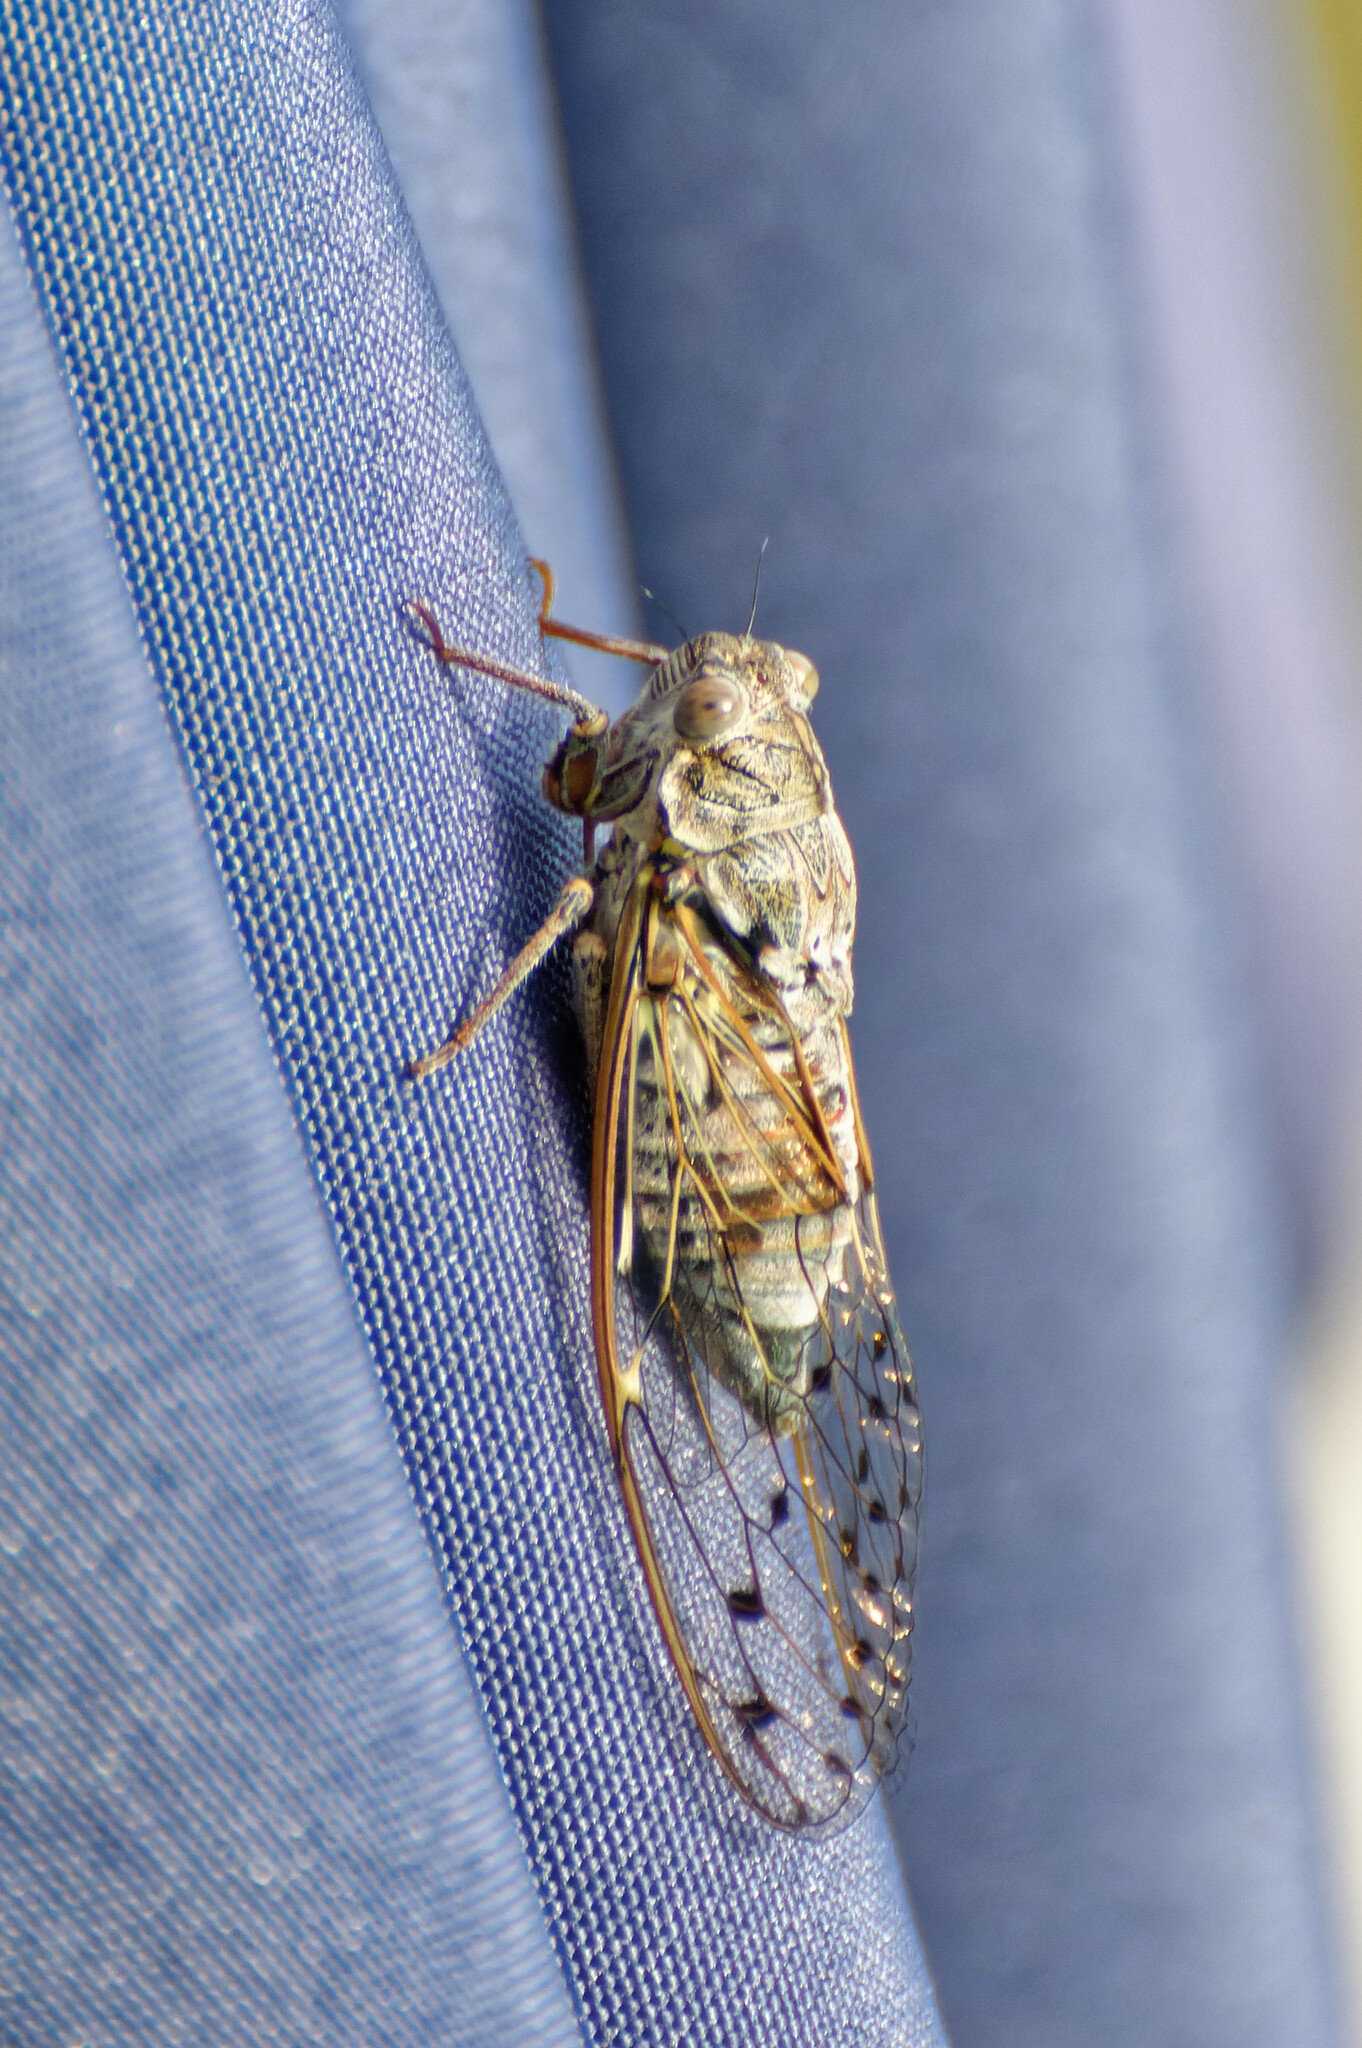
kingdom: Animalia
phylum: Arthropoda
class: Insecta
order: Hemiptera
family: Cicadidae
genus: Cicada
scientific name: Cicada orni
